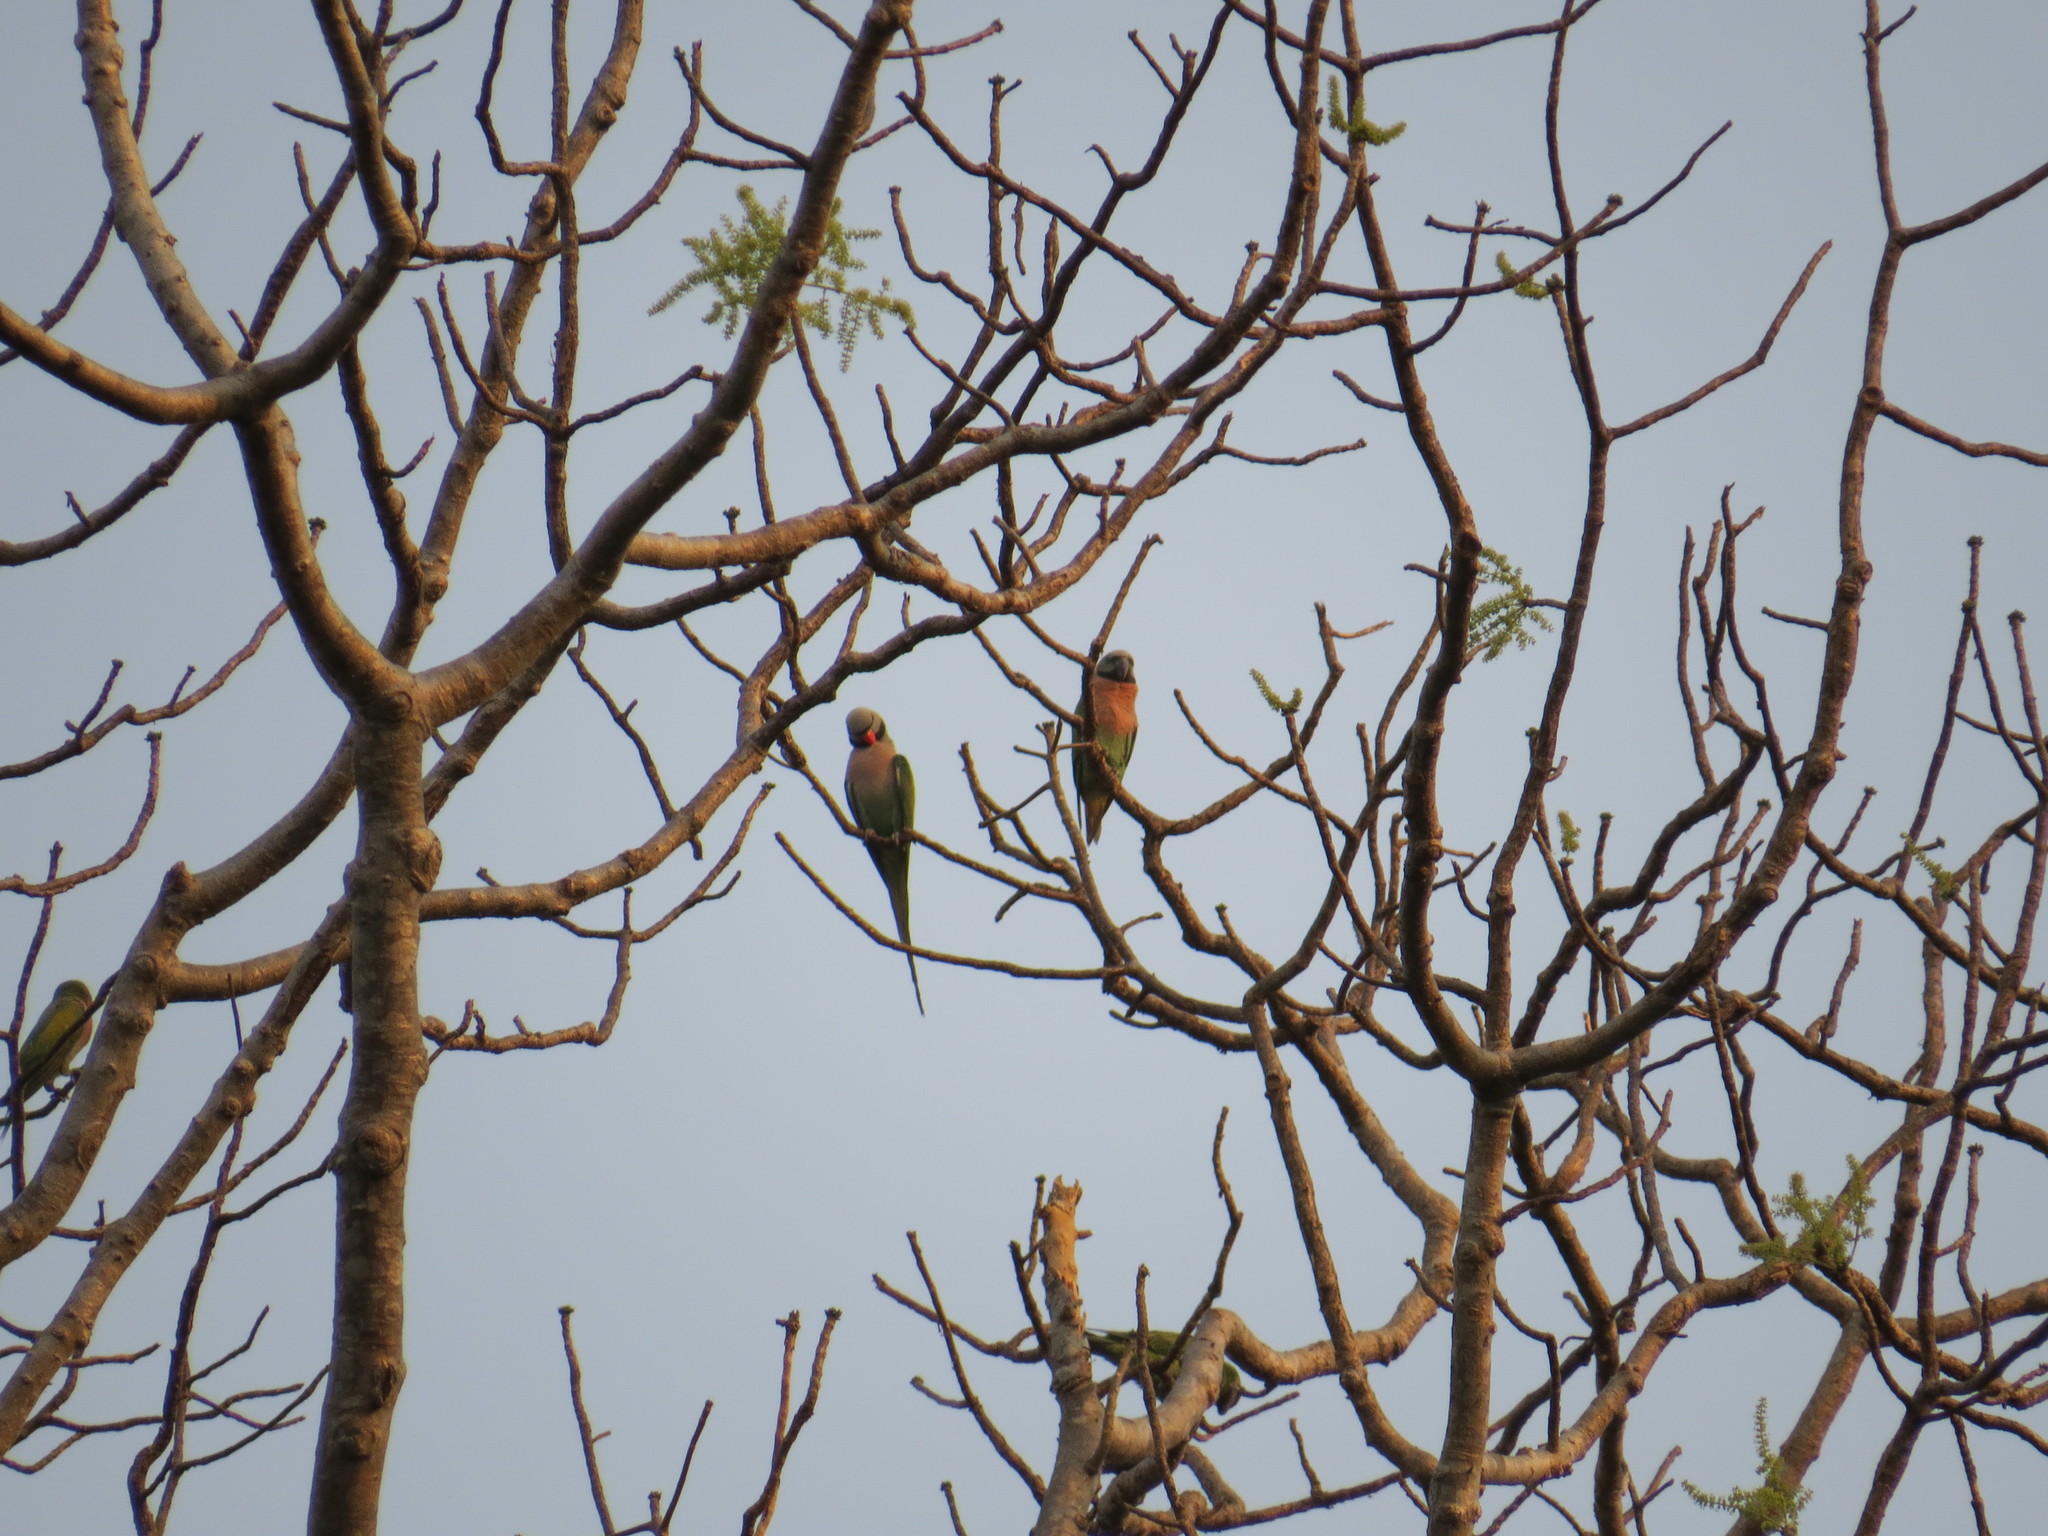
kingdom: Animalia
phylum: Chordata
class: Aves
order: Psittaciformes
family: Psittacidae
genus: Psittacula
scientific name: Psittacula alexandri
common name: Red-breasted parakeet
